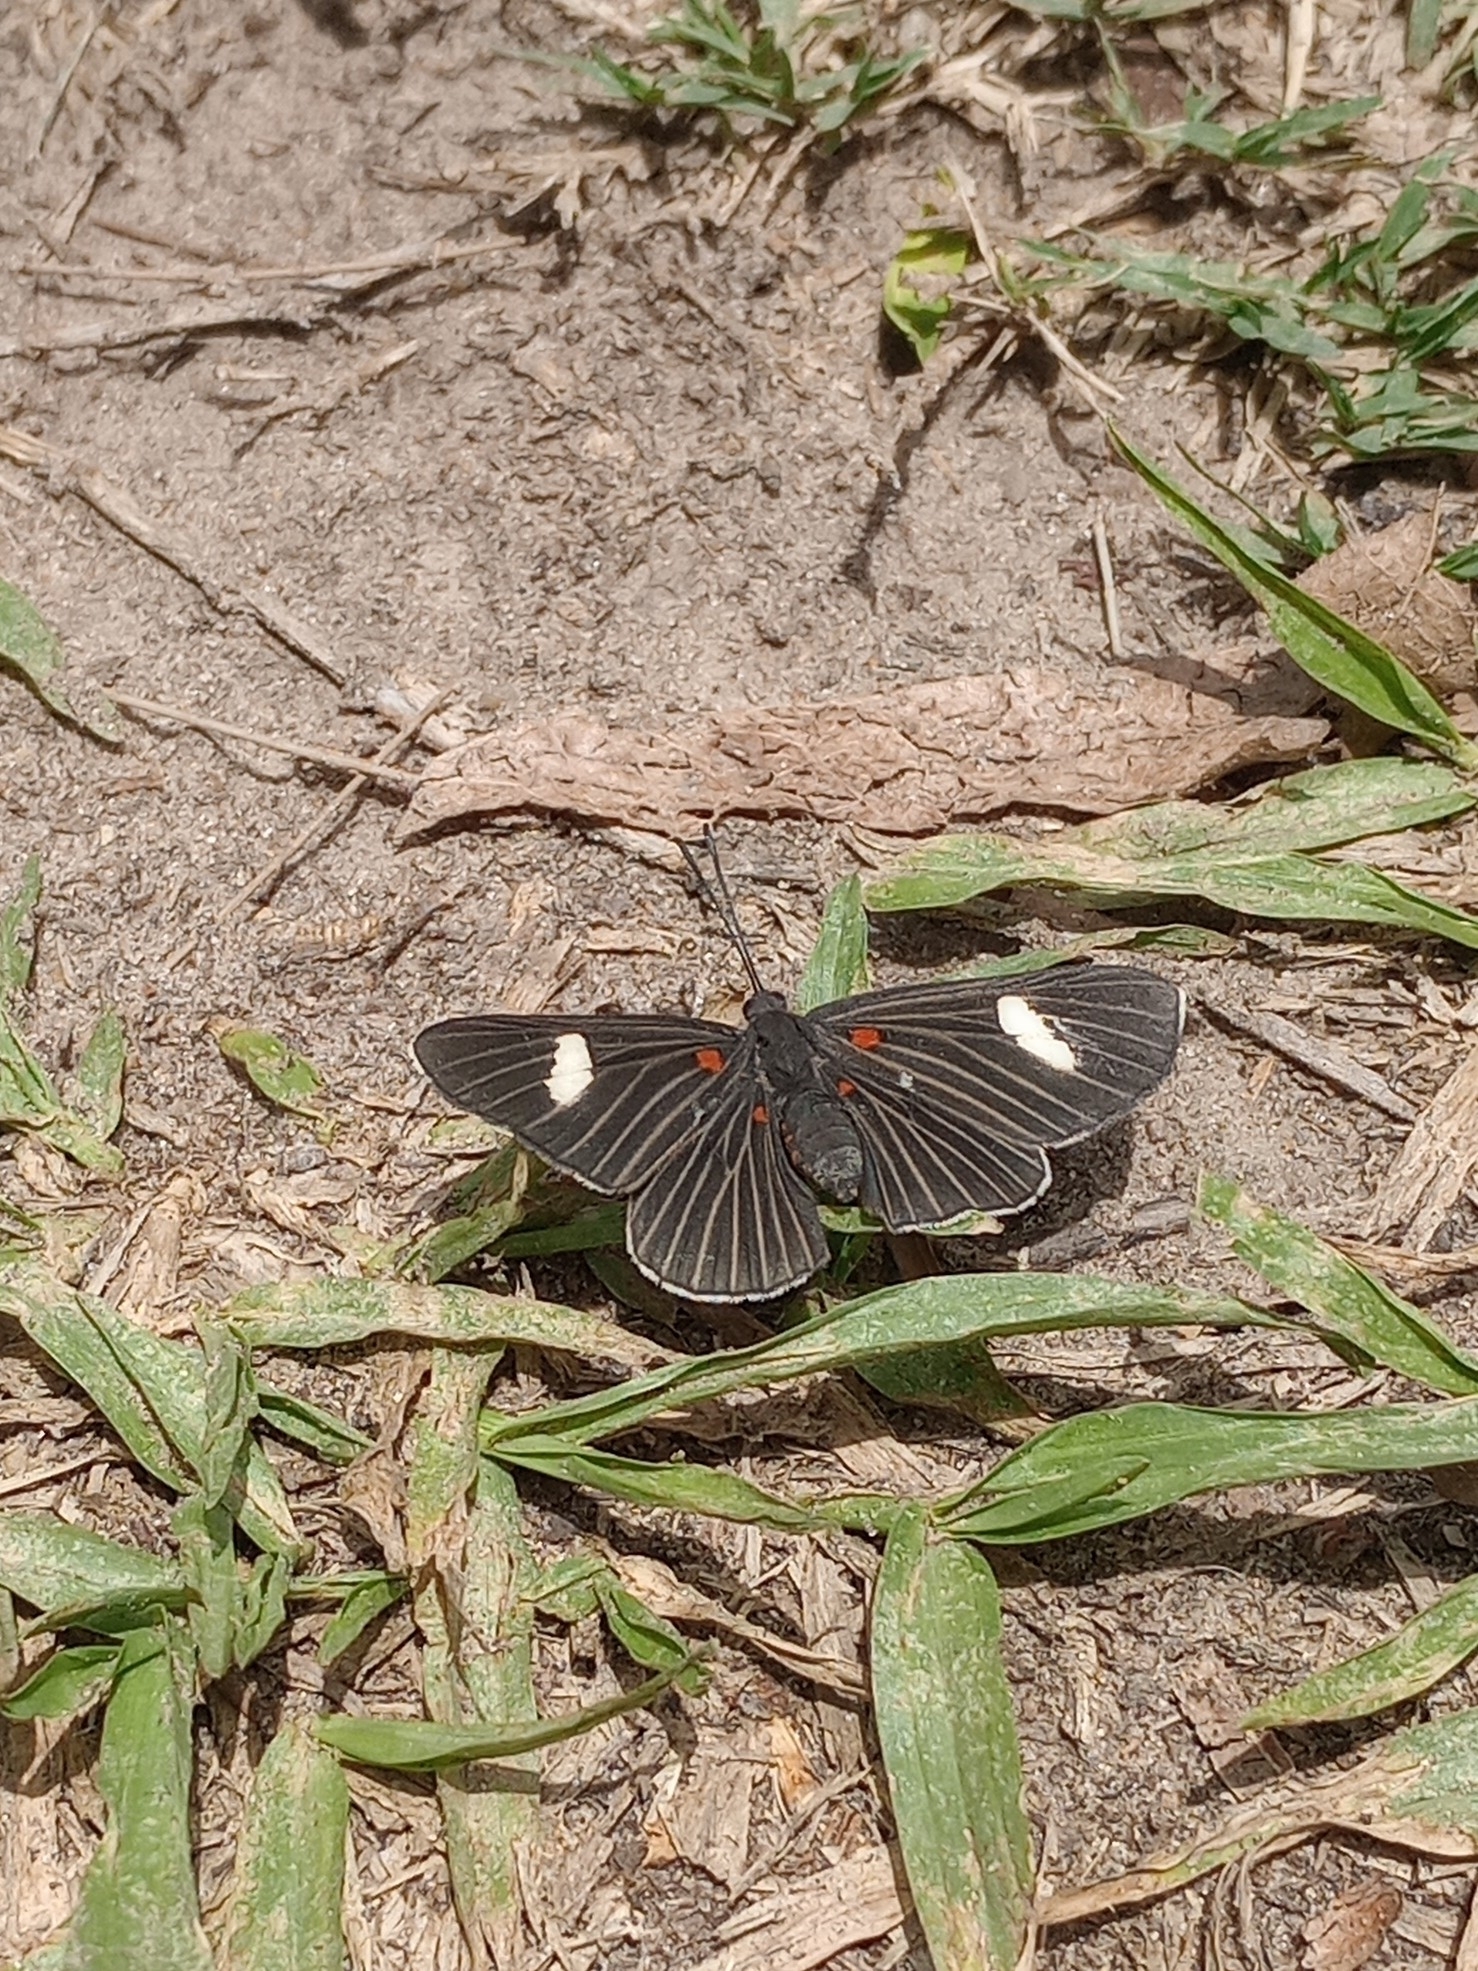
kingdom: Animalia
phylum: Arthropoda
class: Insecta
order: Lepidoptera
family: Lycaenidae
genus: Melanis
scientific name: Melanis aegates
